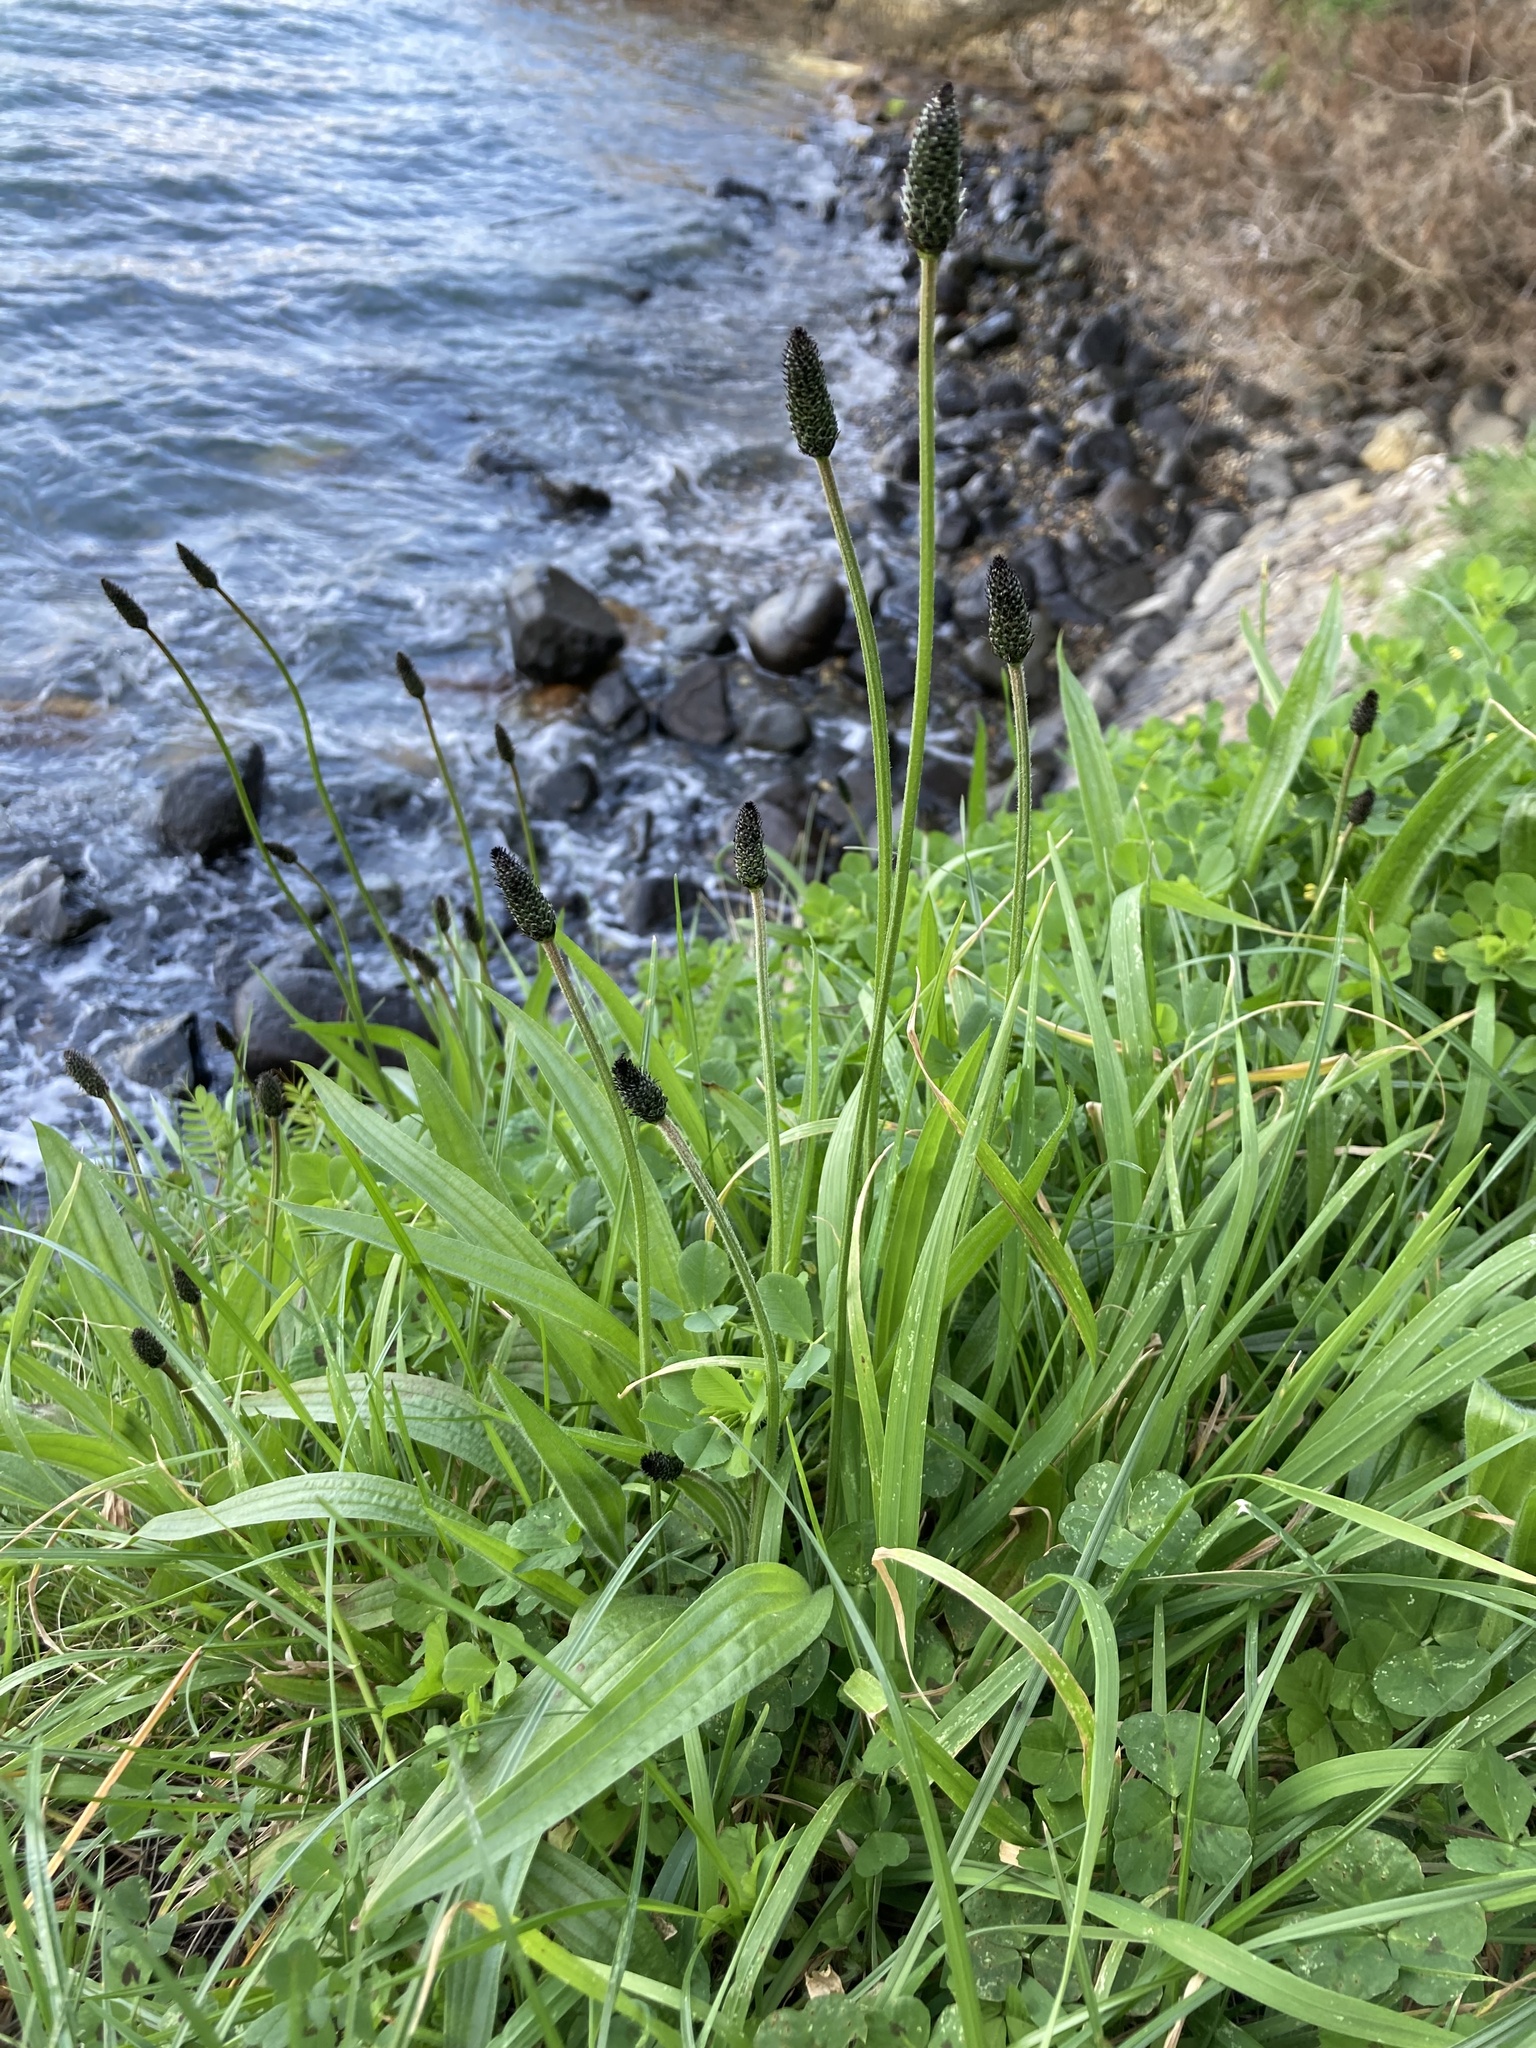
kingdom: Plantae
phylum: Tracheophyta
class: Magnoliopsida
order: Lamiales
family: Plantaginaceae
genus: Plantago
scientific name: Plantago lanceolata
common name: Ribwort plantain
